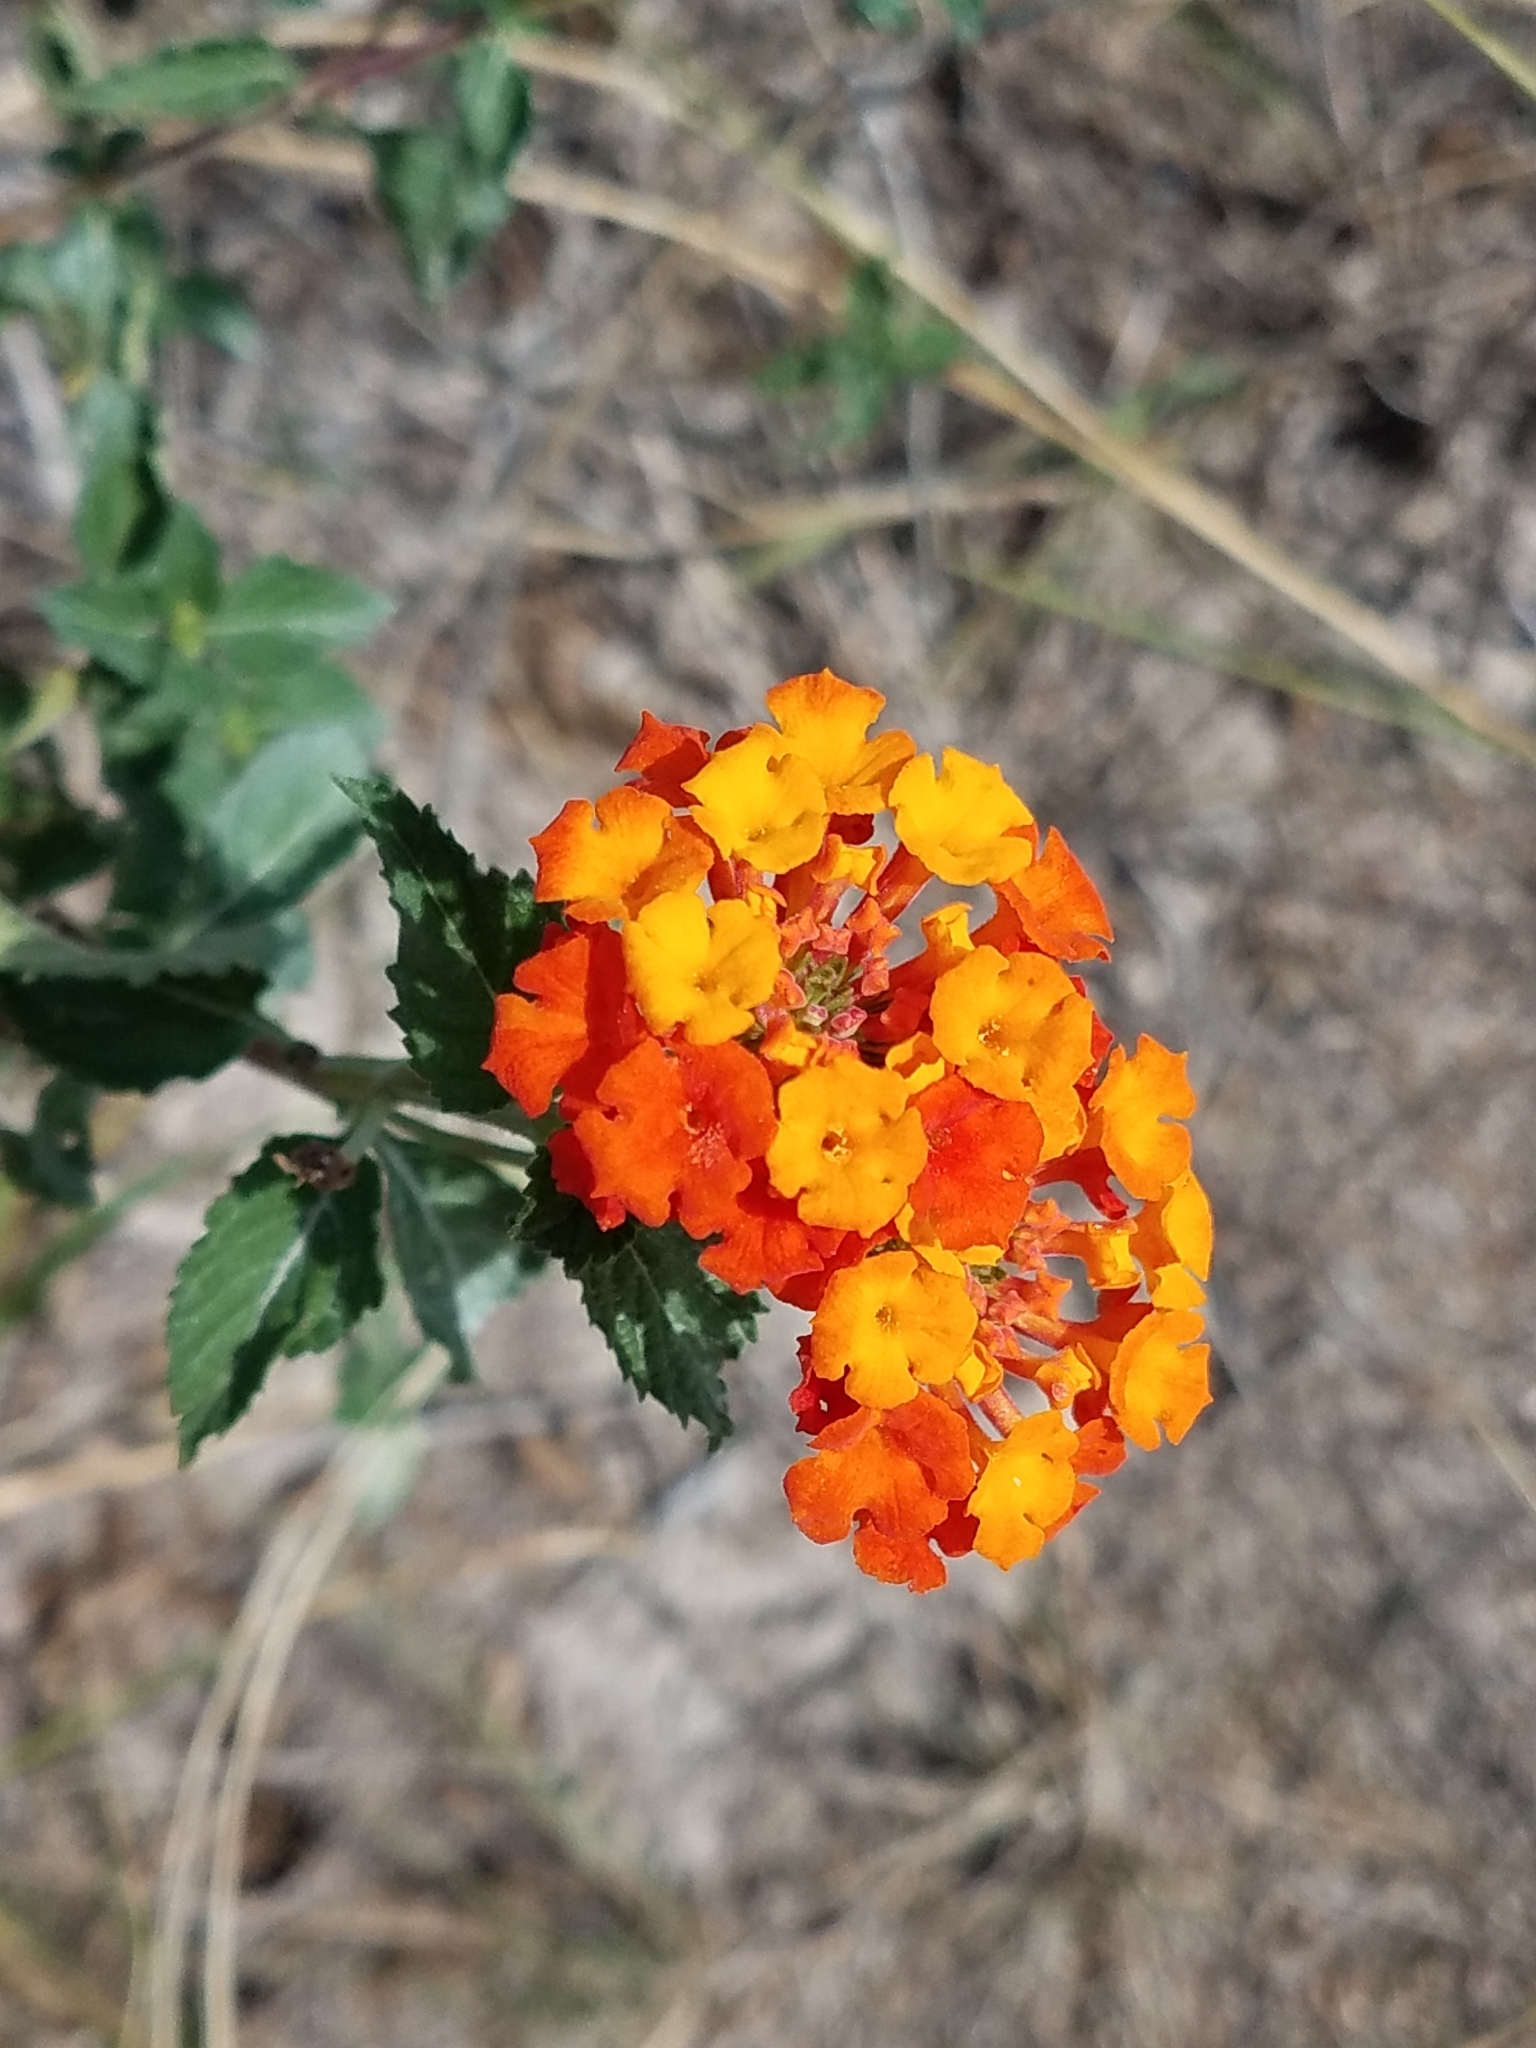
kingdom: Plantae
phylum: Tracheophyta
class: Magnoliopsida
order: Lamiales
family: Verbenaceae
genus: Lantana
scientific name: Lantana urticoides
